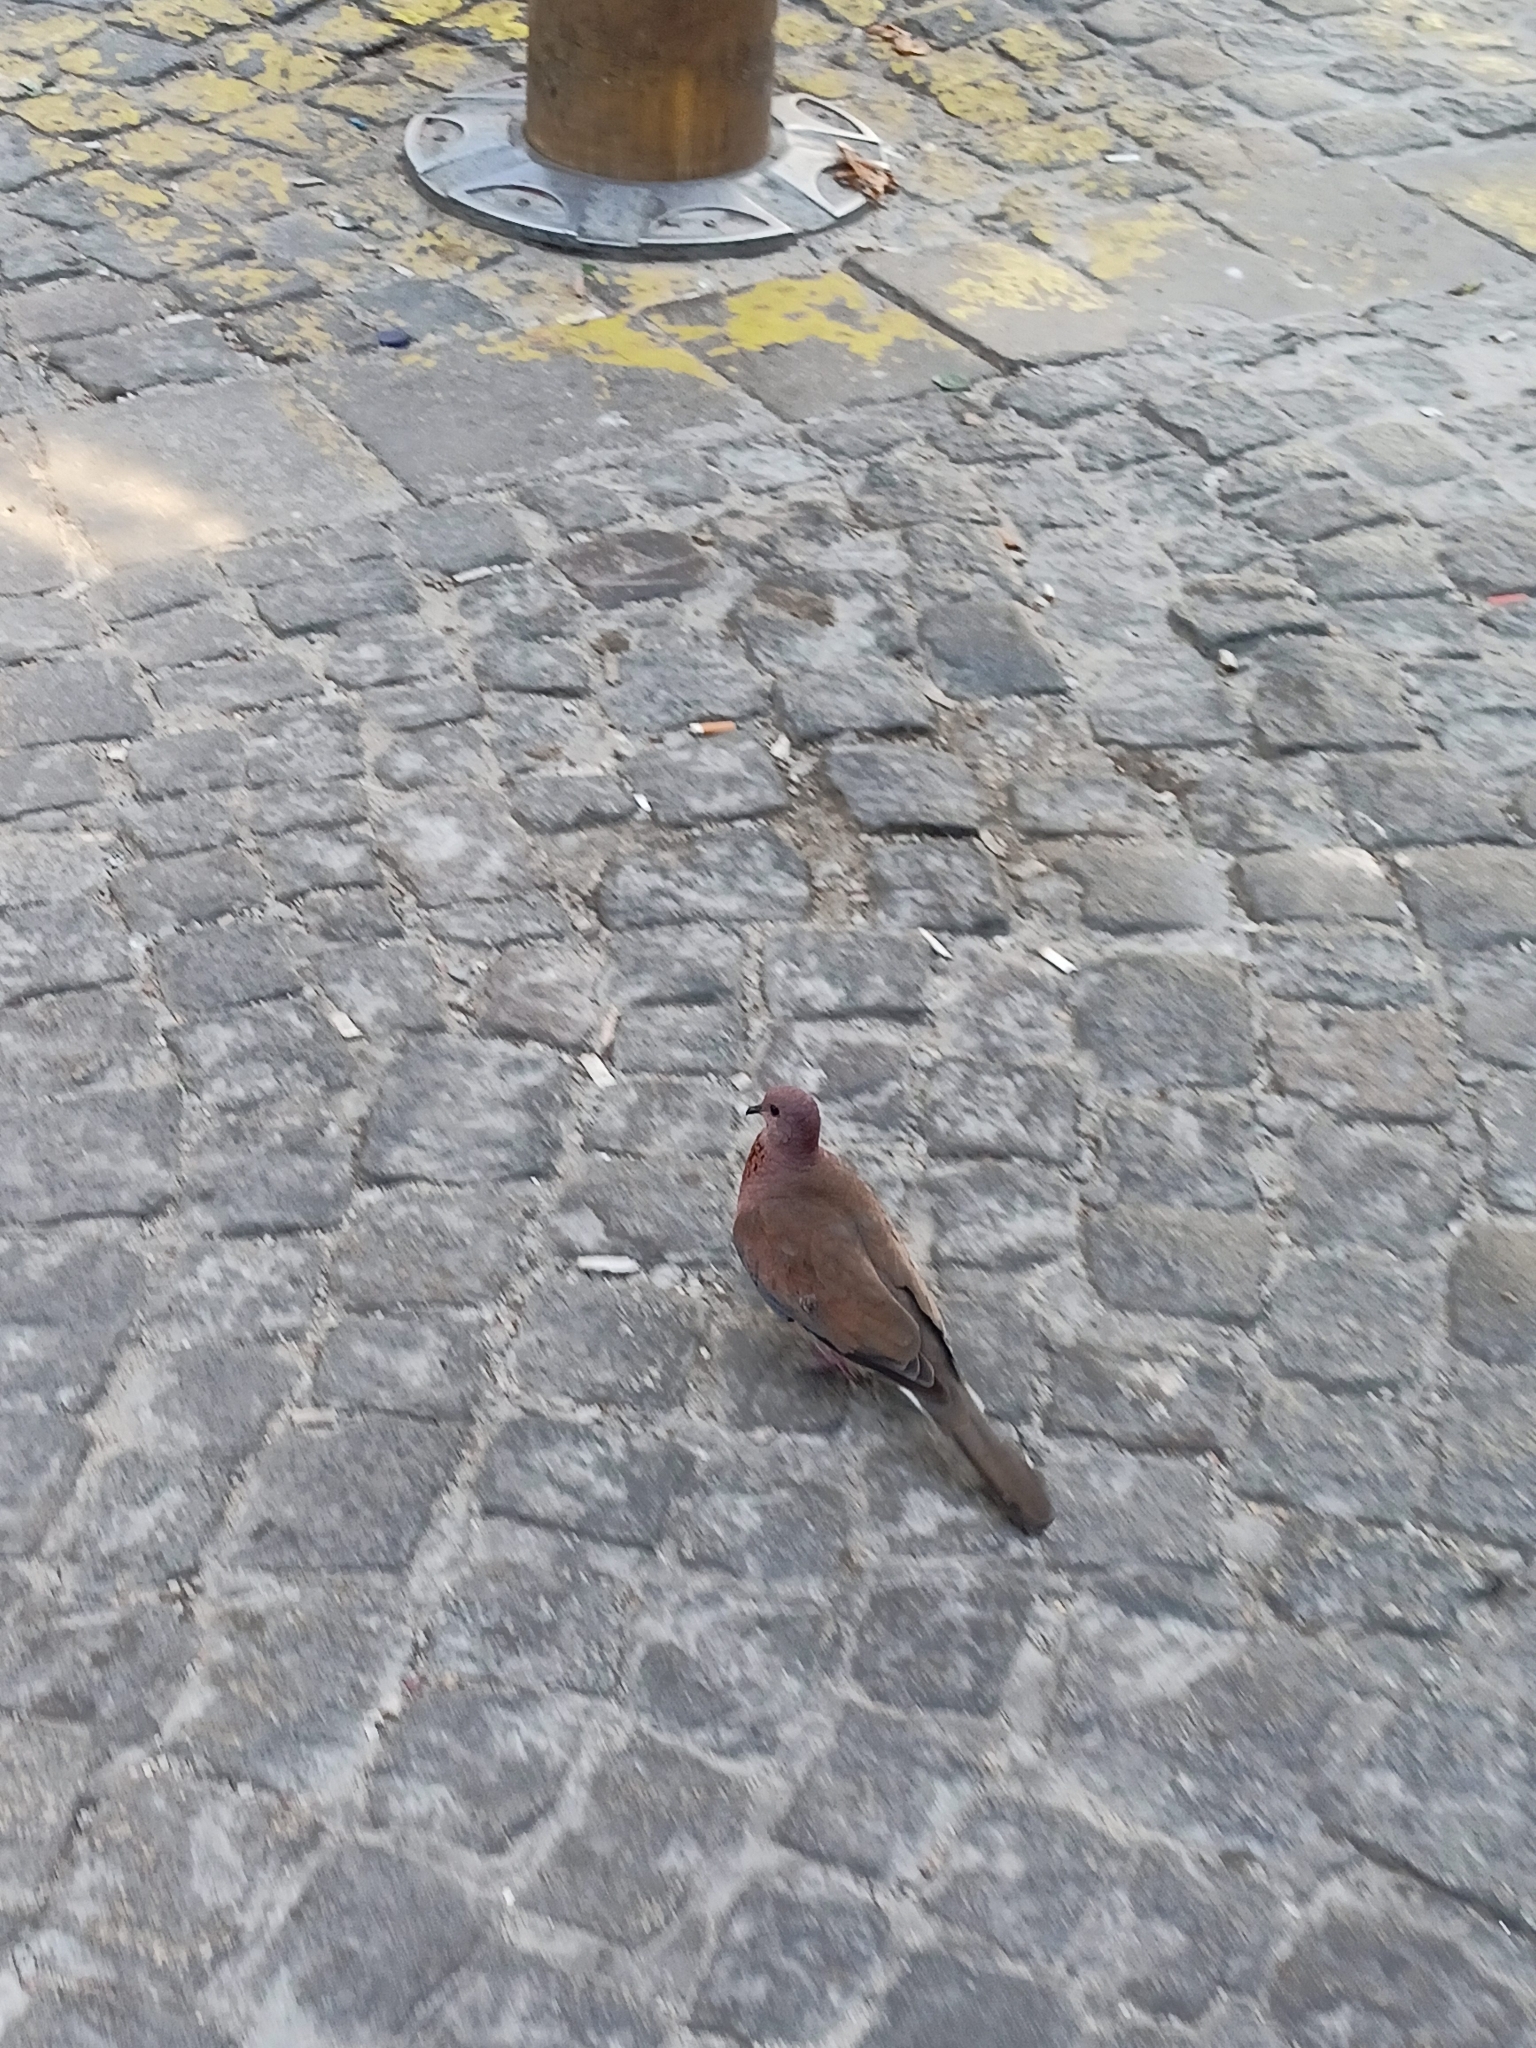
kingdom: Animalia
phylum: Chordata
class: Aves
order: Columbiformes
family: Columbidae
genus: Spilopelia
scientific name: Spilopelia senegalensis
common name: Laughing dove
